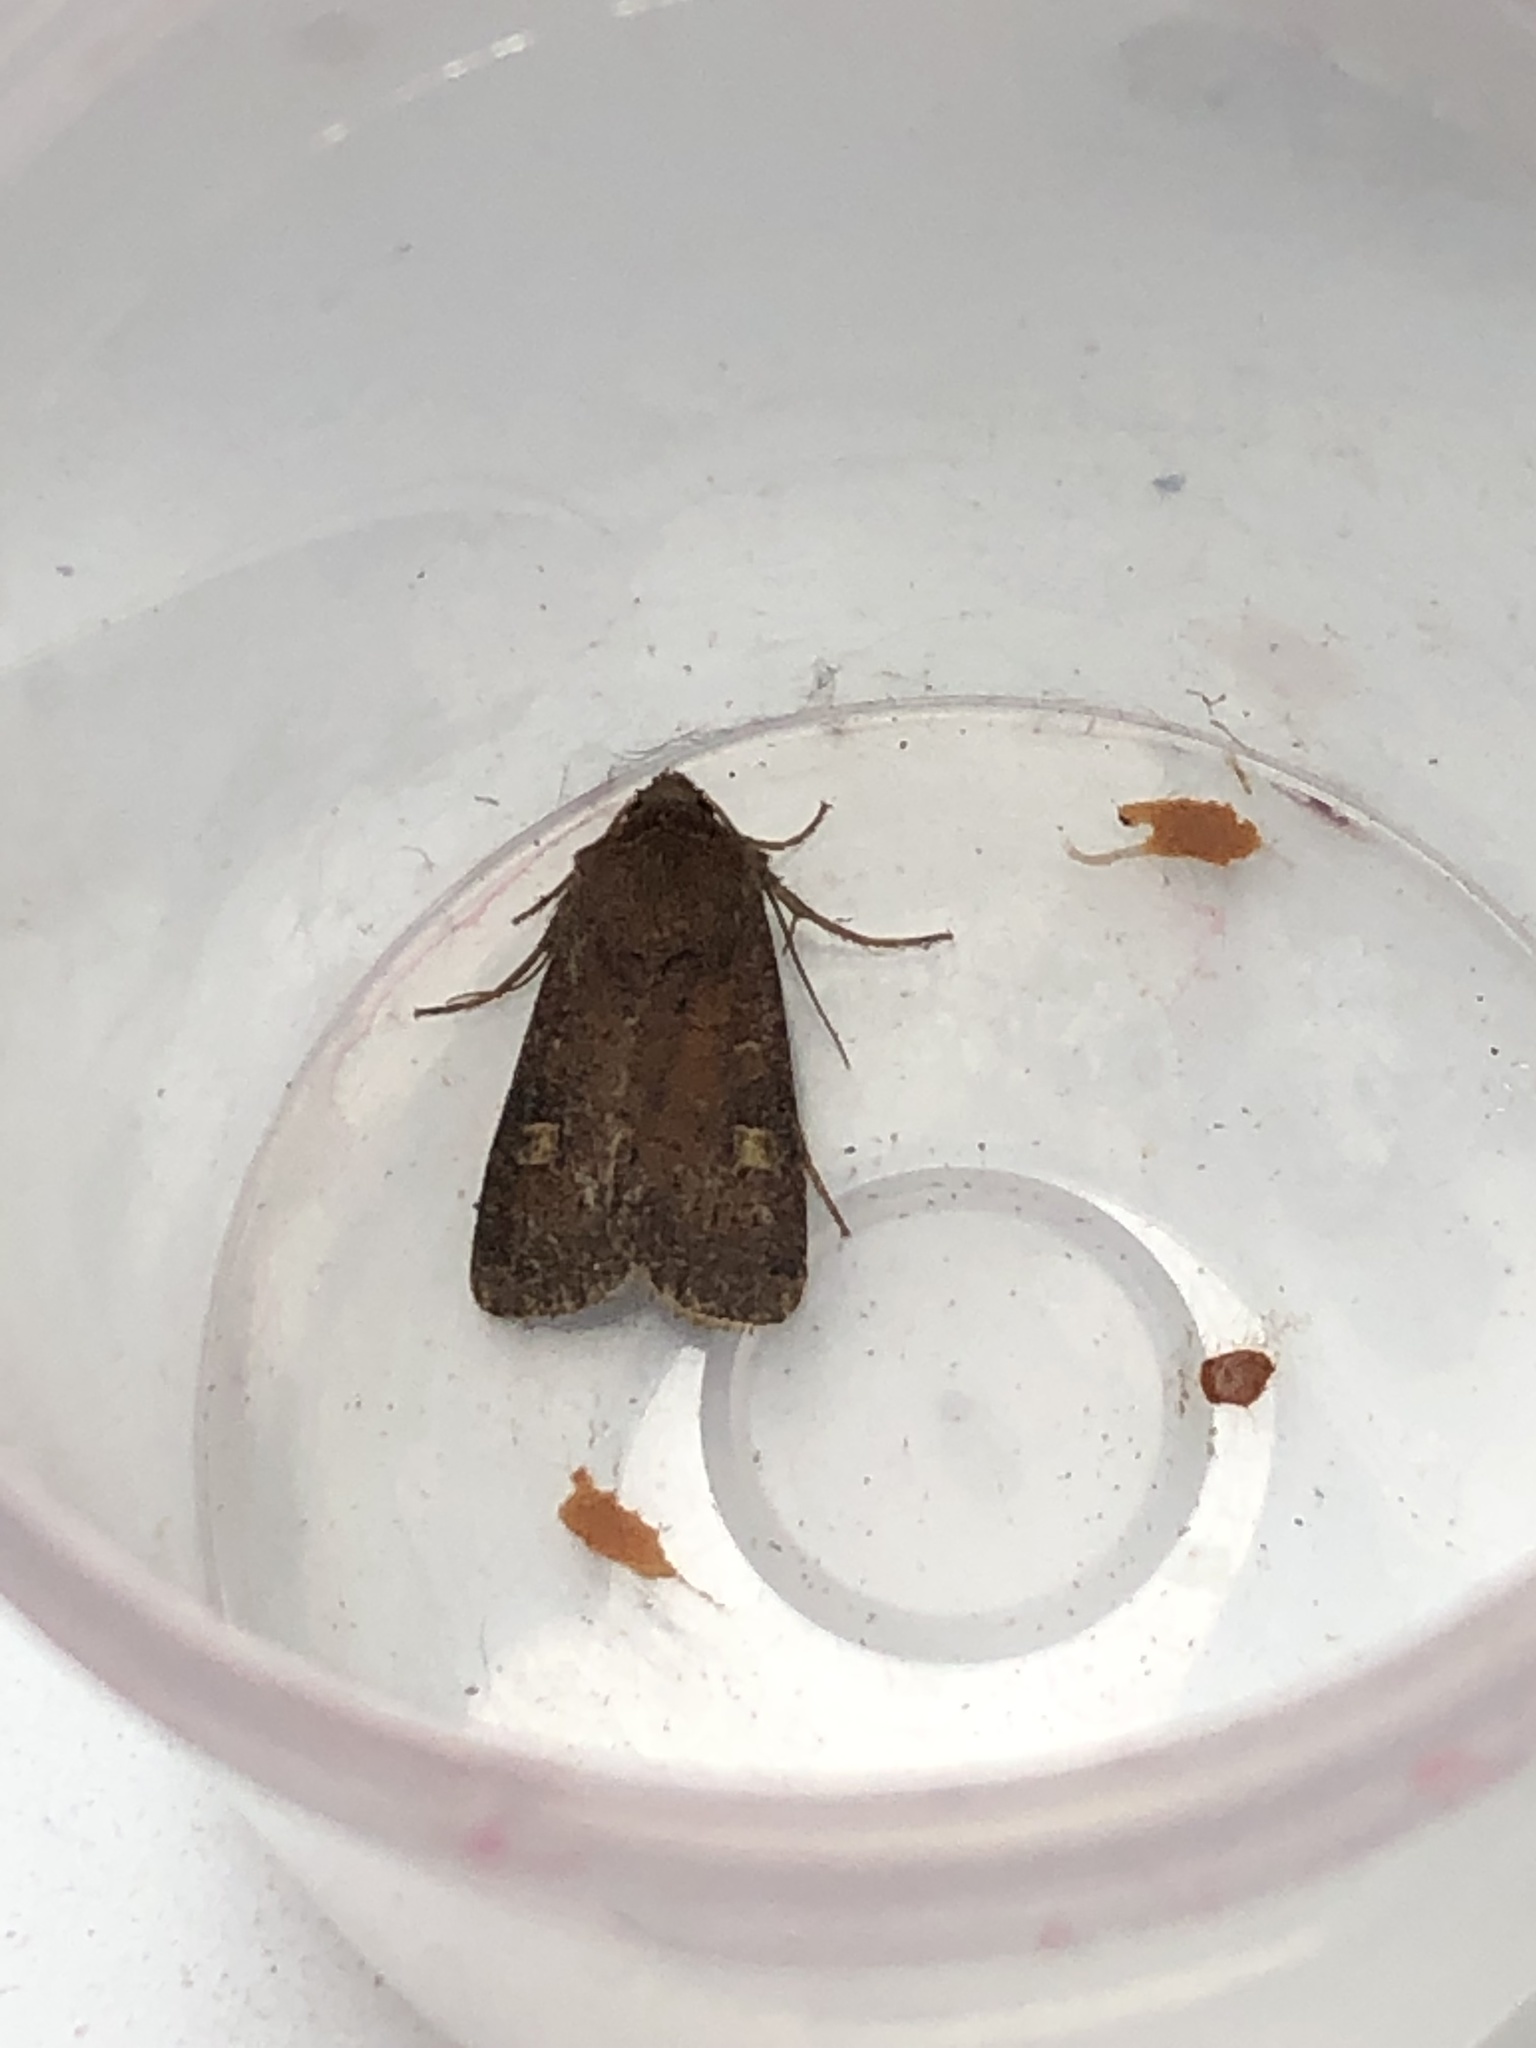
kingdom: Animalia
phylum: Arthropoda
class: Insecta
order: Lepidoptera
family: Noctuidae
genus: Xestia
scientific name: Xestia xanthographa
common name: Square-spot rustic
